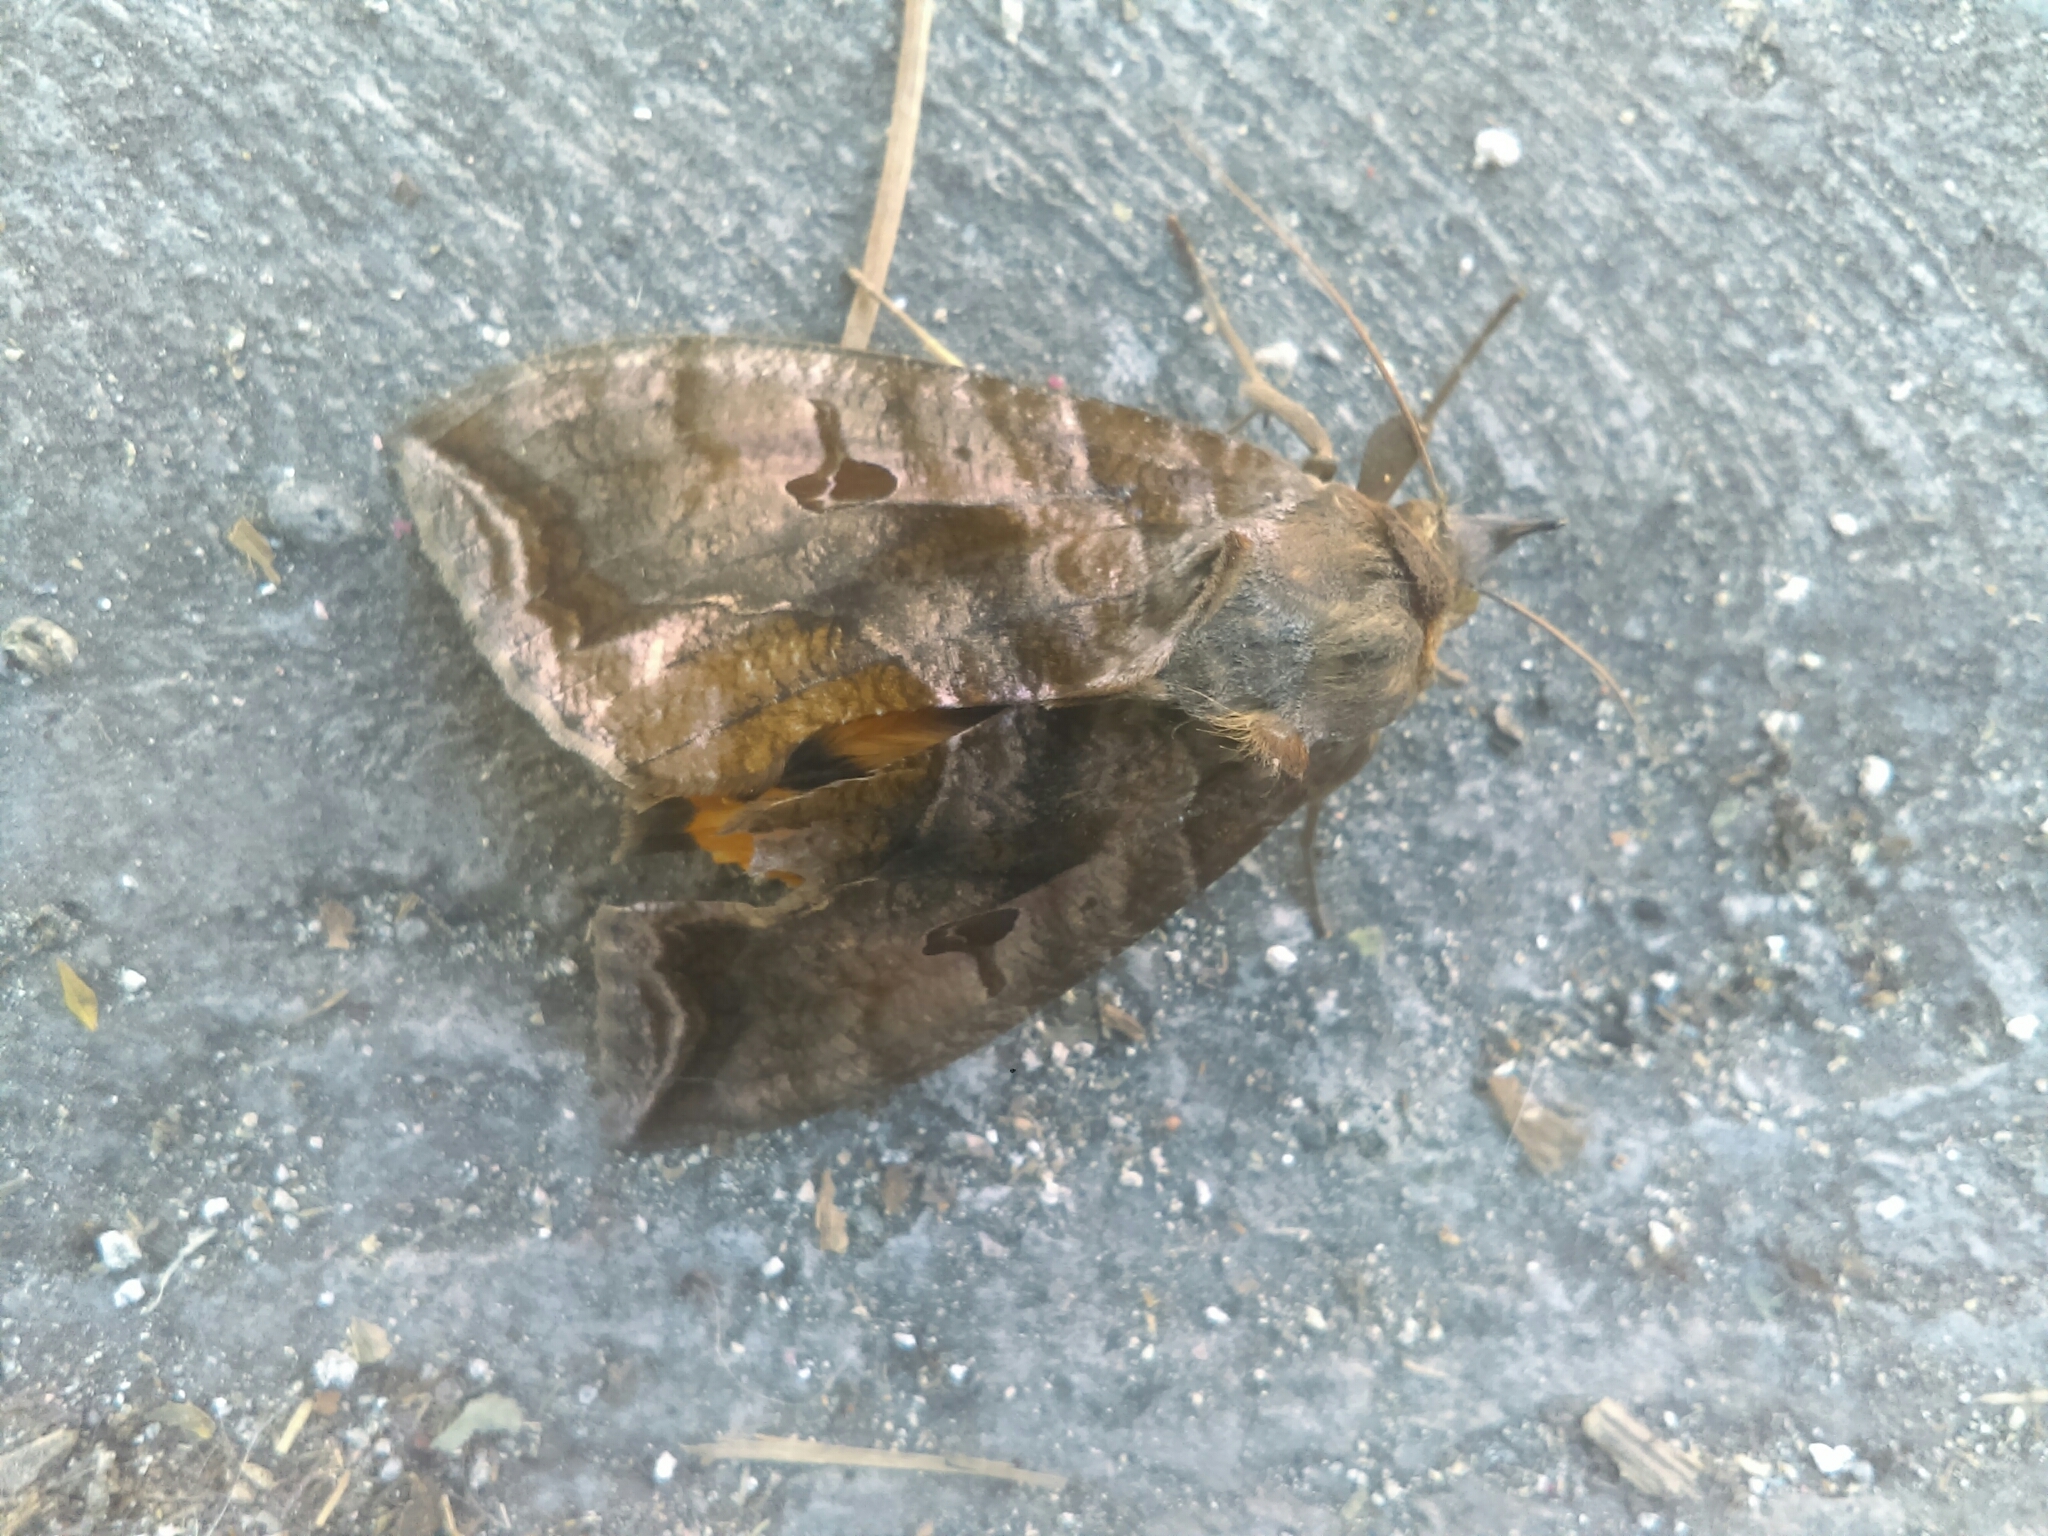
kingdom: Animalia
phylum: Arthropoda
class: Insecta
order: Lepidoptera
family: Erebidae
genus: Eudocima
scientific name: Eudocima serpentifera
